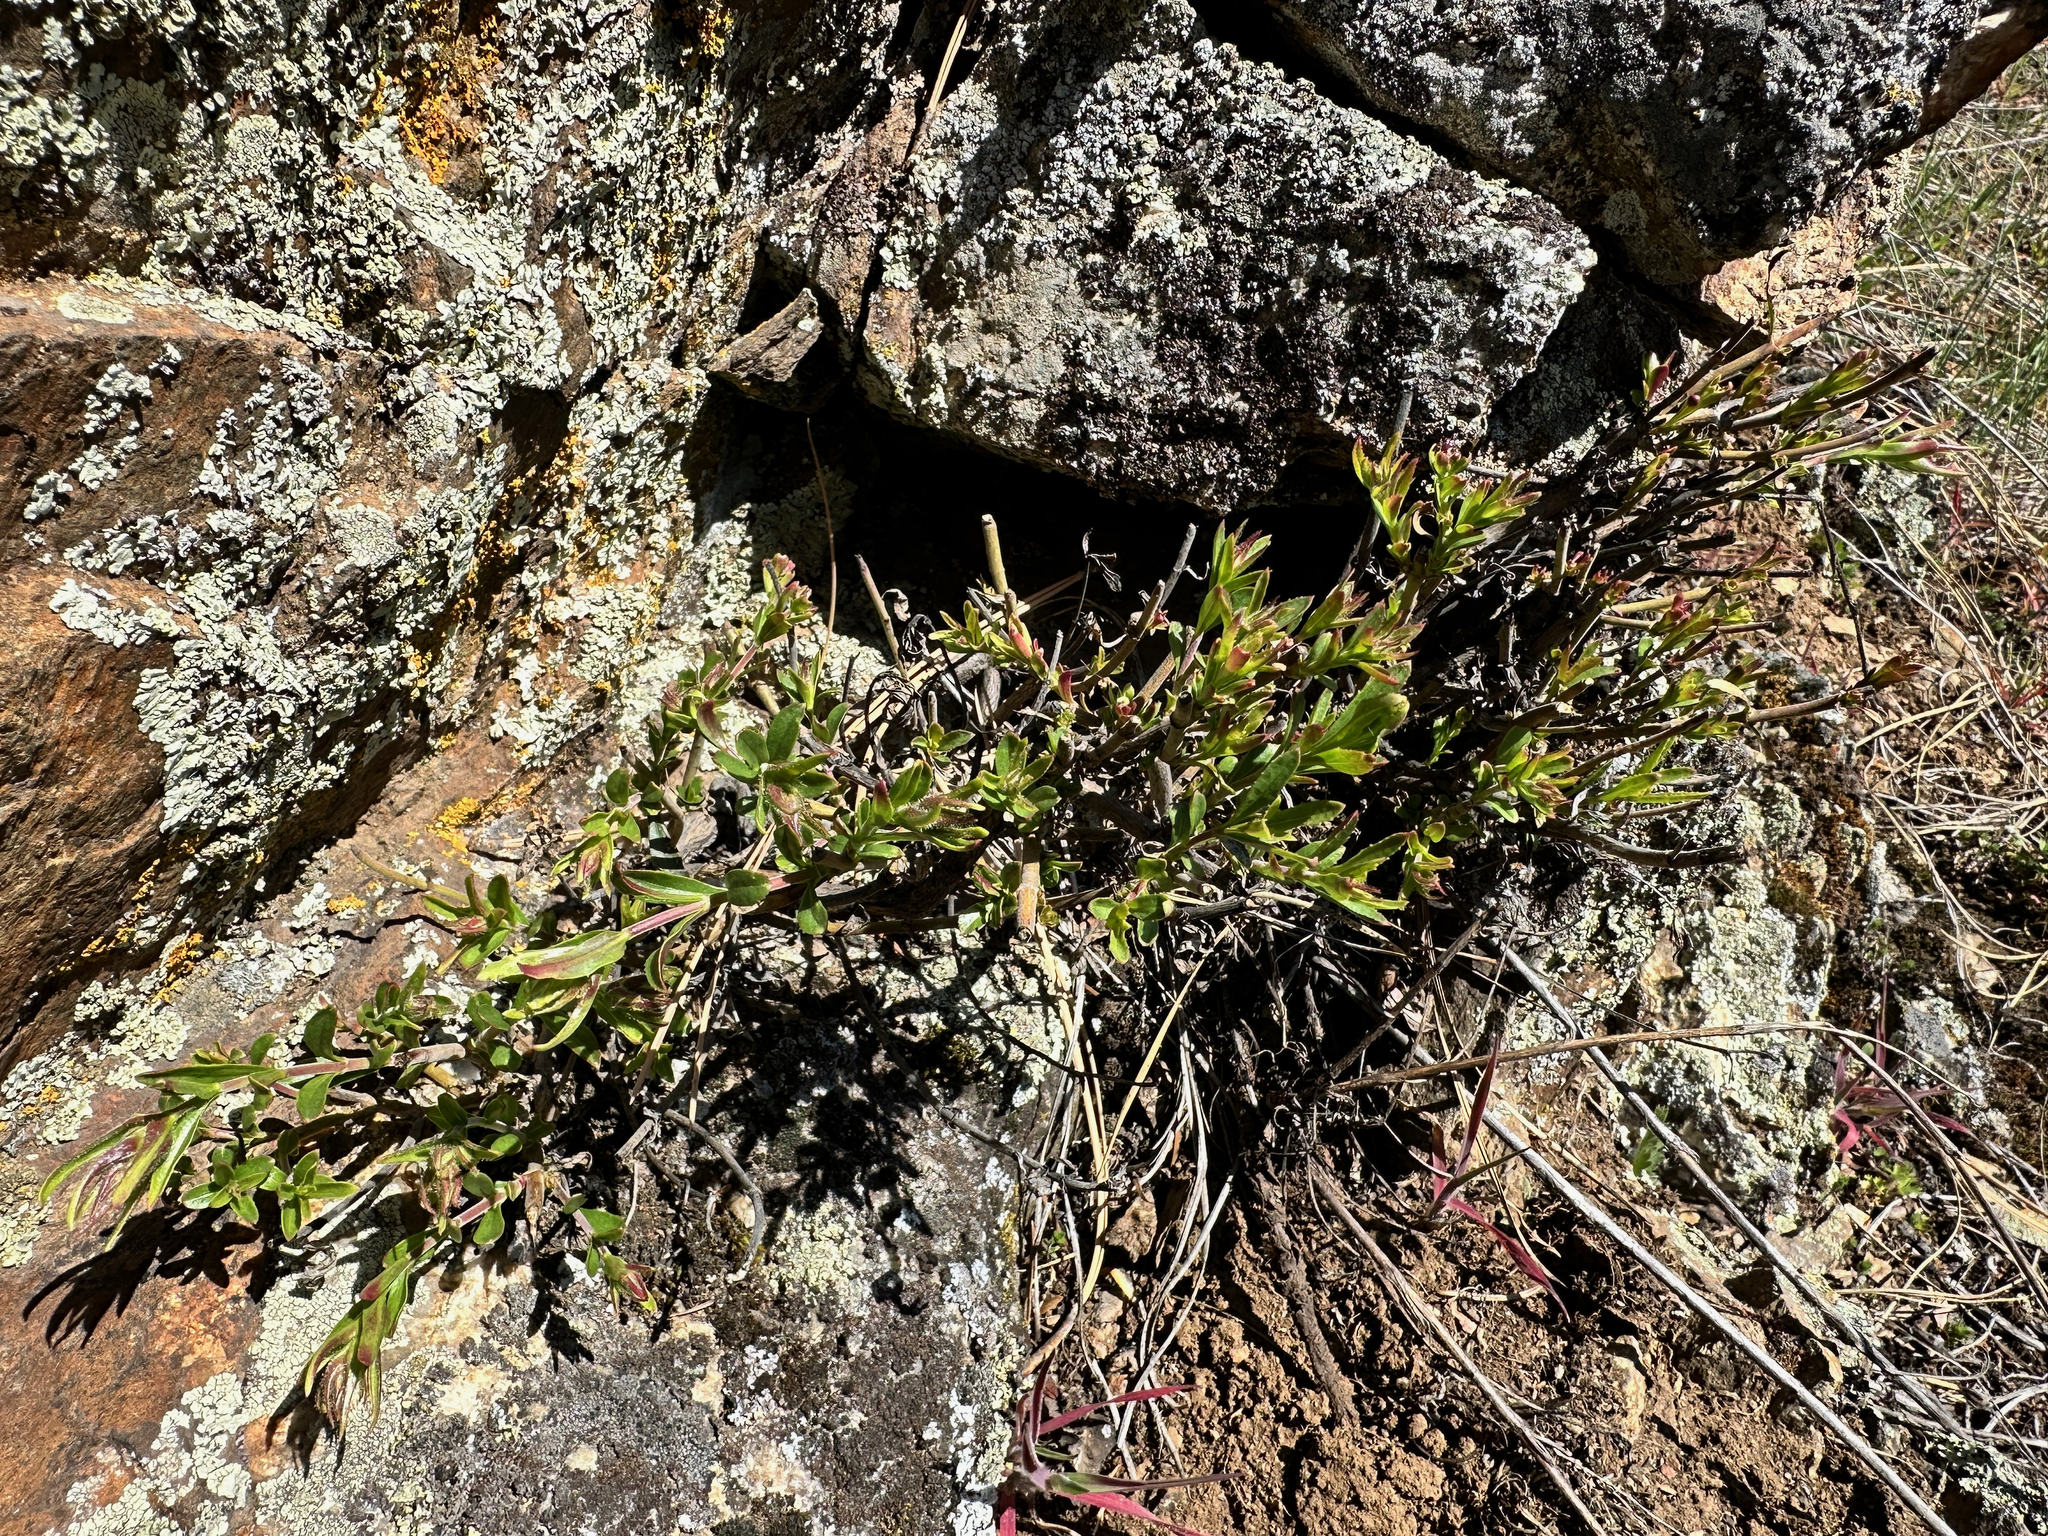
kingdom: Plantae
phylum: Tracheophyta
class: Magnoliopsida
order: Lamiales
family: Plantaginaceae
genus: Penstemon
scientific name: Penstemon fruticosus
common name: Bush penstemon
